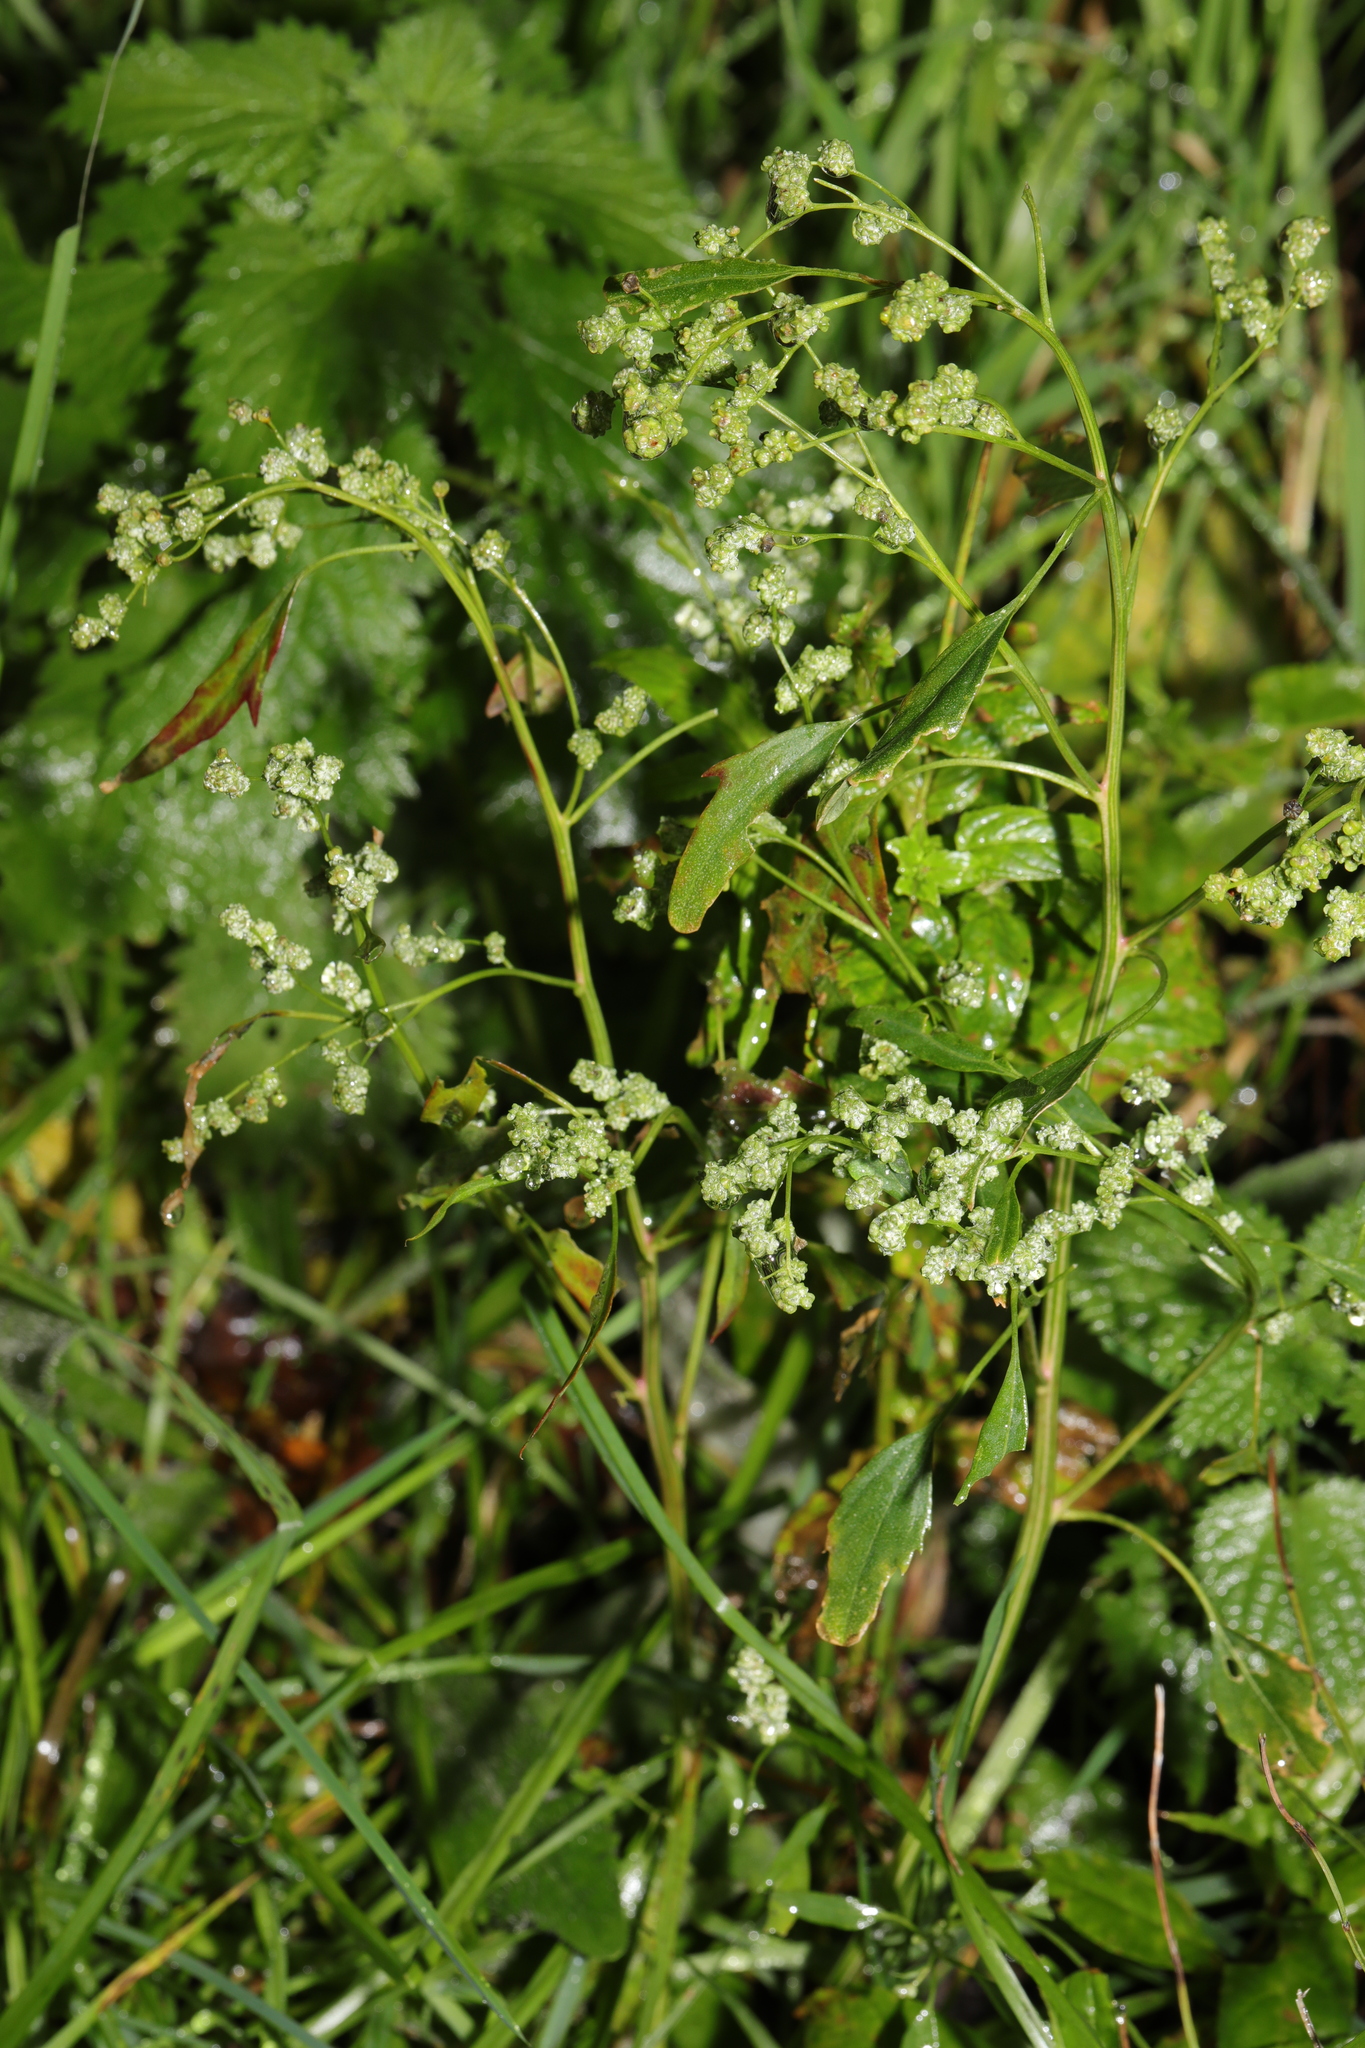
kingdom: Plantae
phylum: Tracheophyta
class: Magnoliopsida
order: Caryophyllales
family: Amaranthaceae
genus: Chenopodium
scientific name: Chenopodium album
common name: Fat-hen
